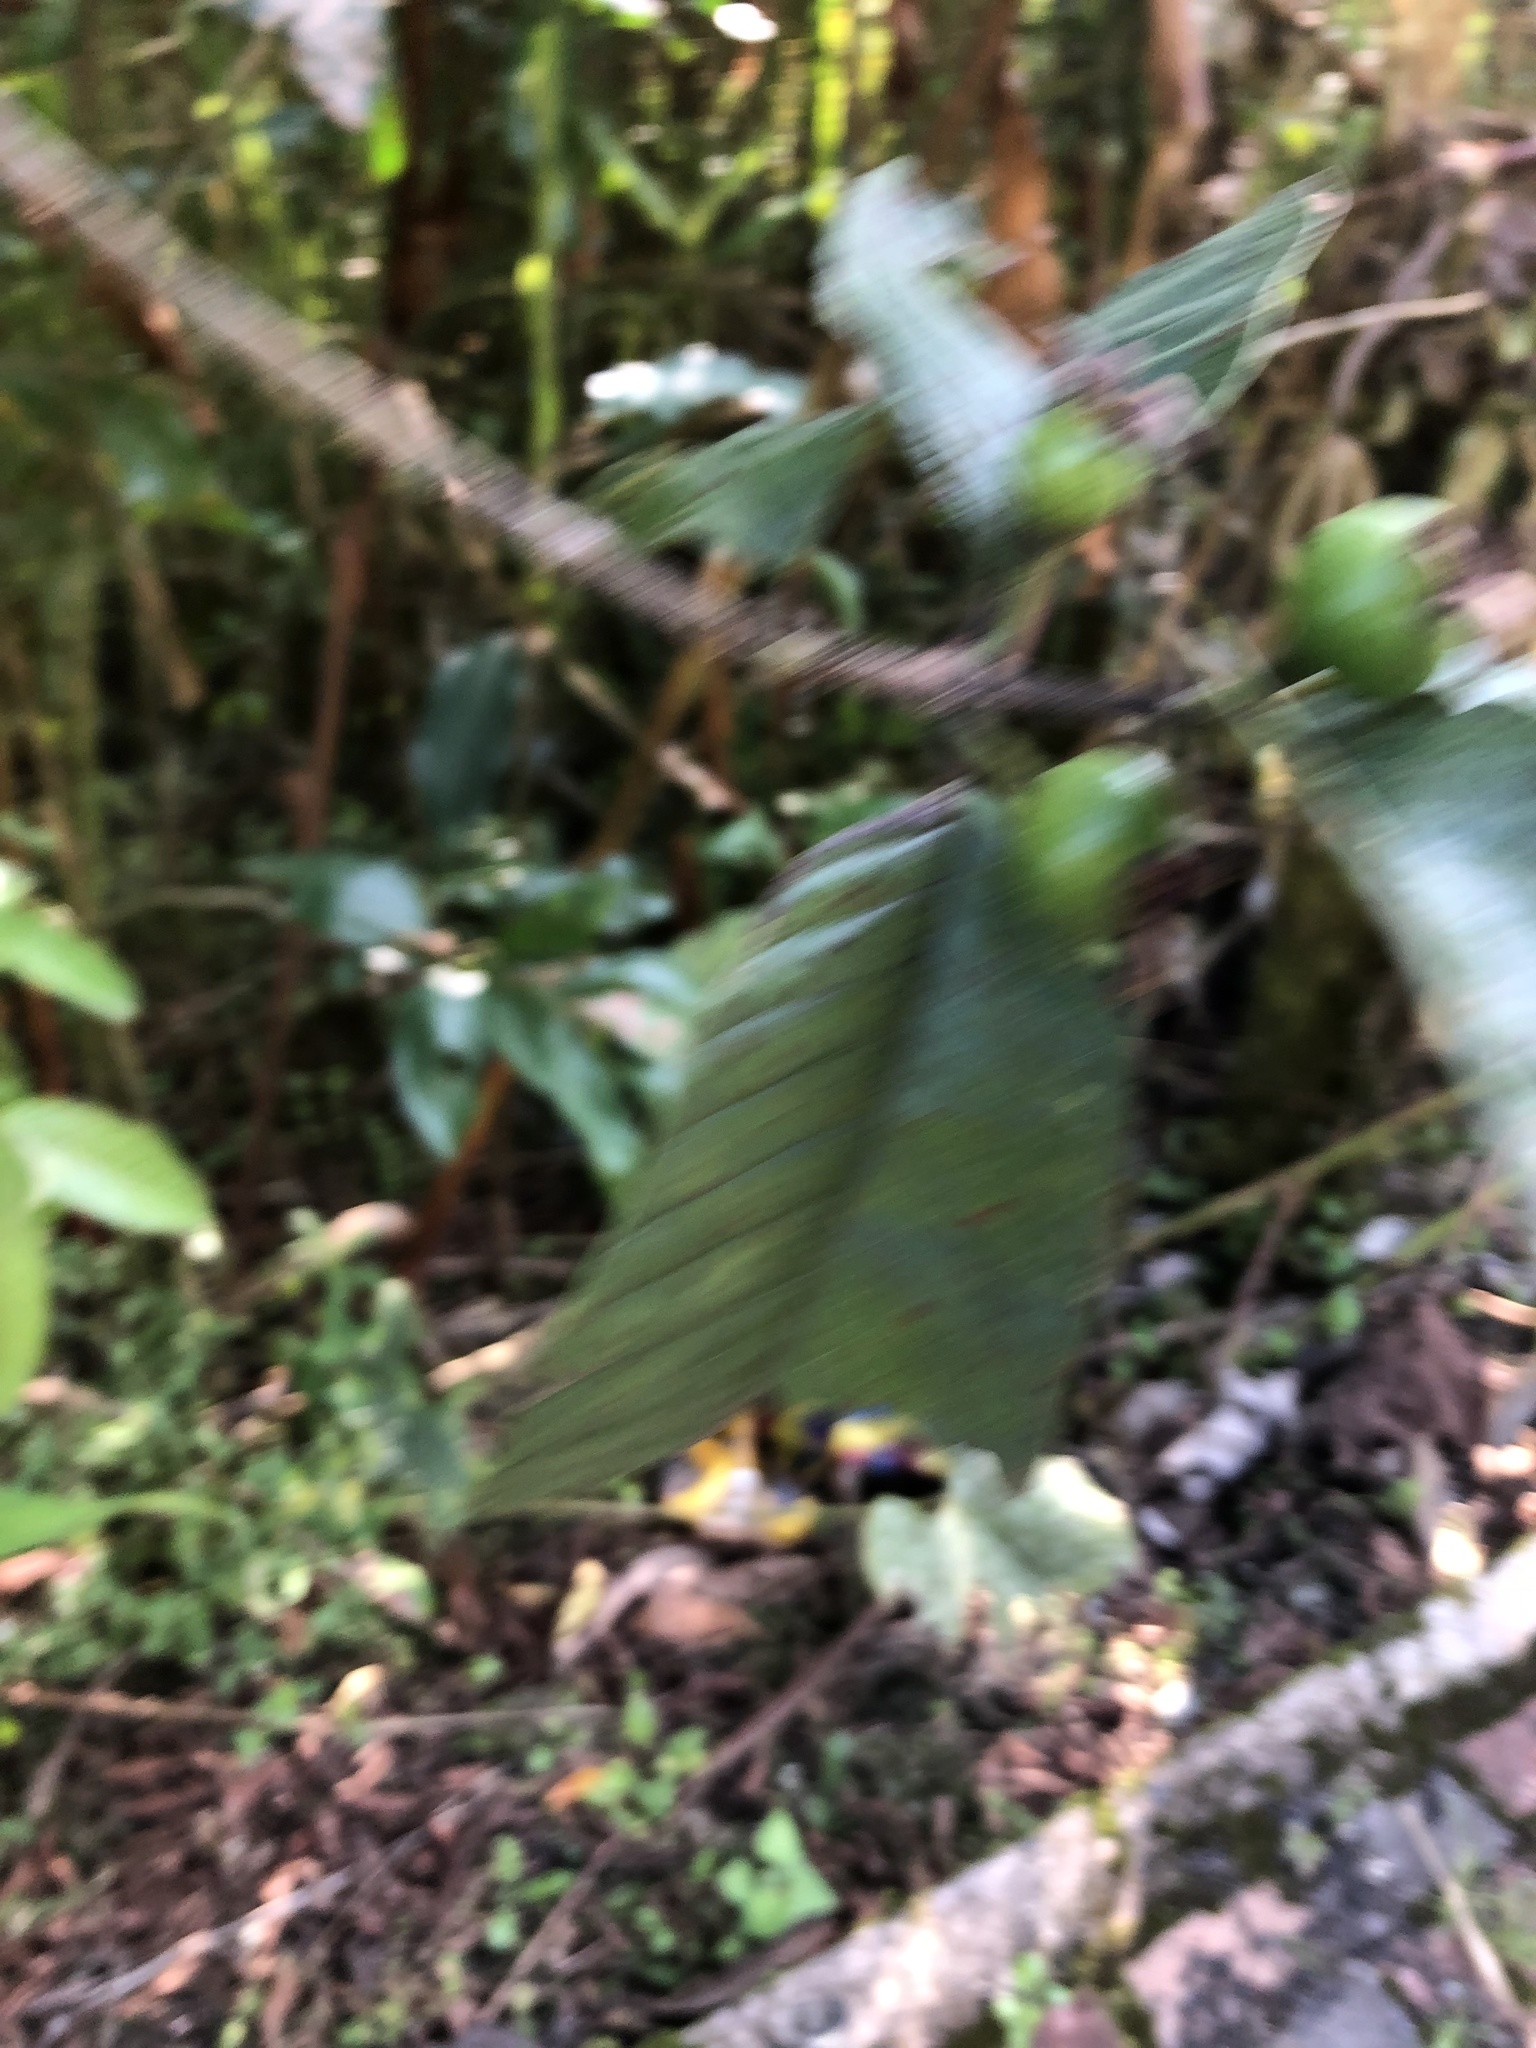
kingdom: Plantae
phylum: Tracheophyta
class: Magnoliopsida
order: Myrtales
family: Myrtaceae
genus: Psidium
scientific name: Psidium guajava
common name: Guava
